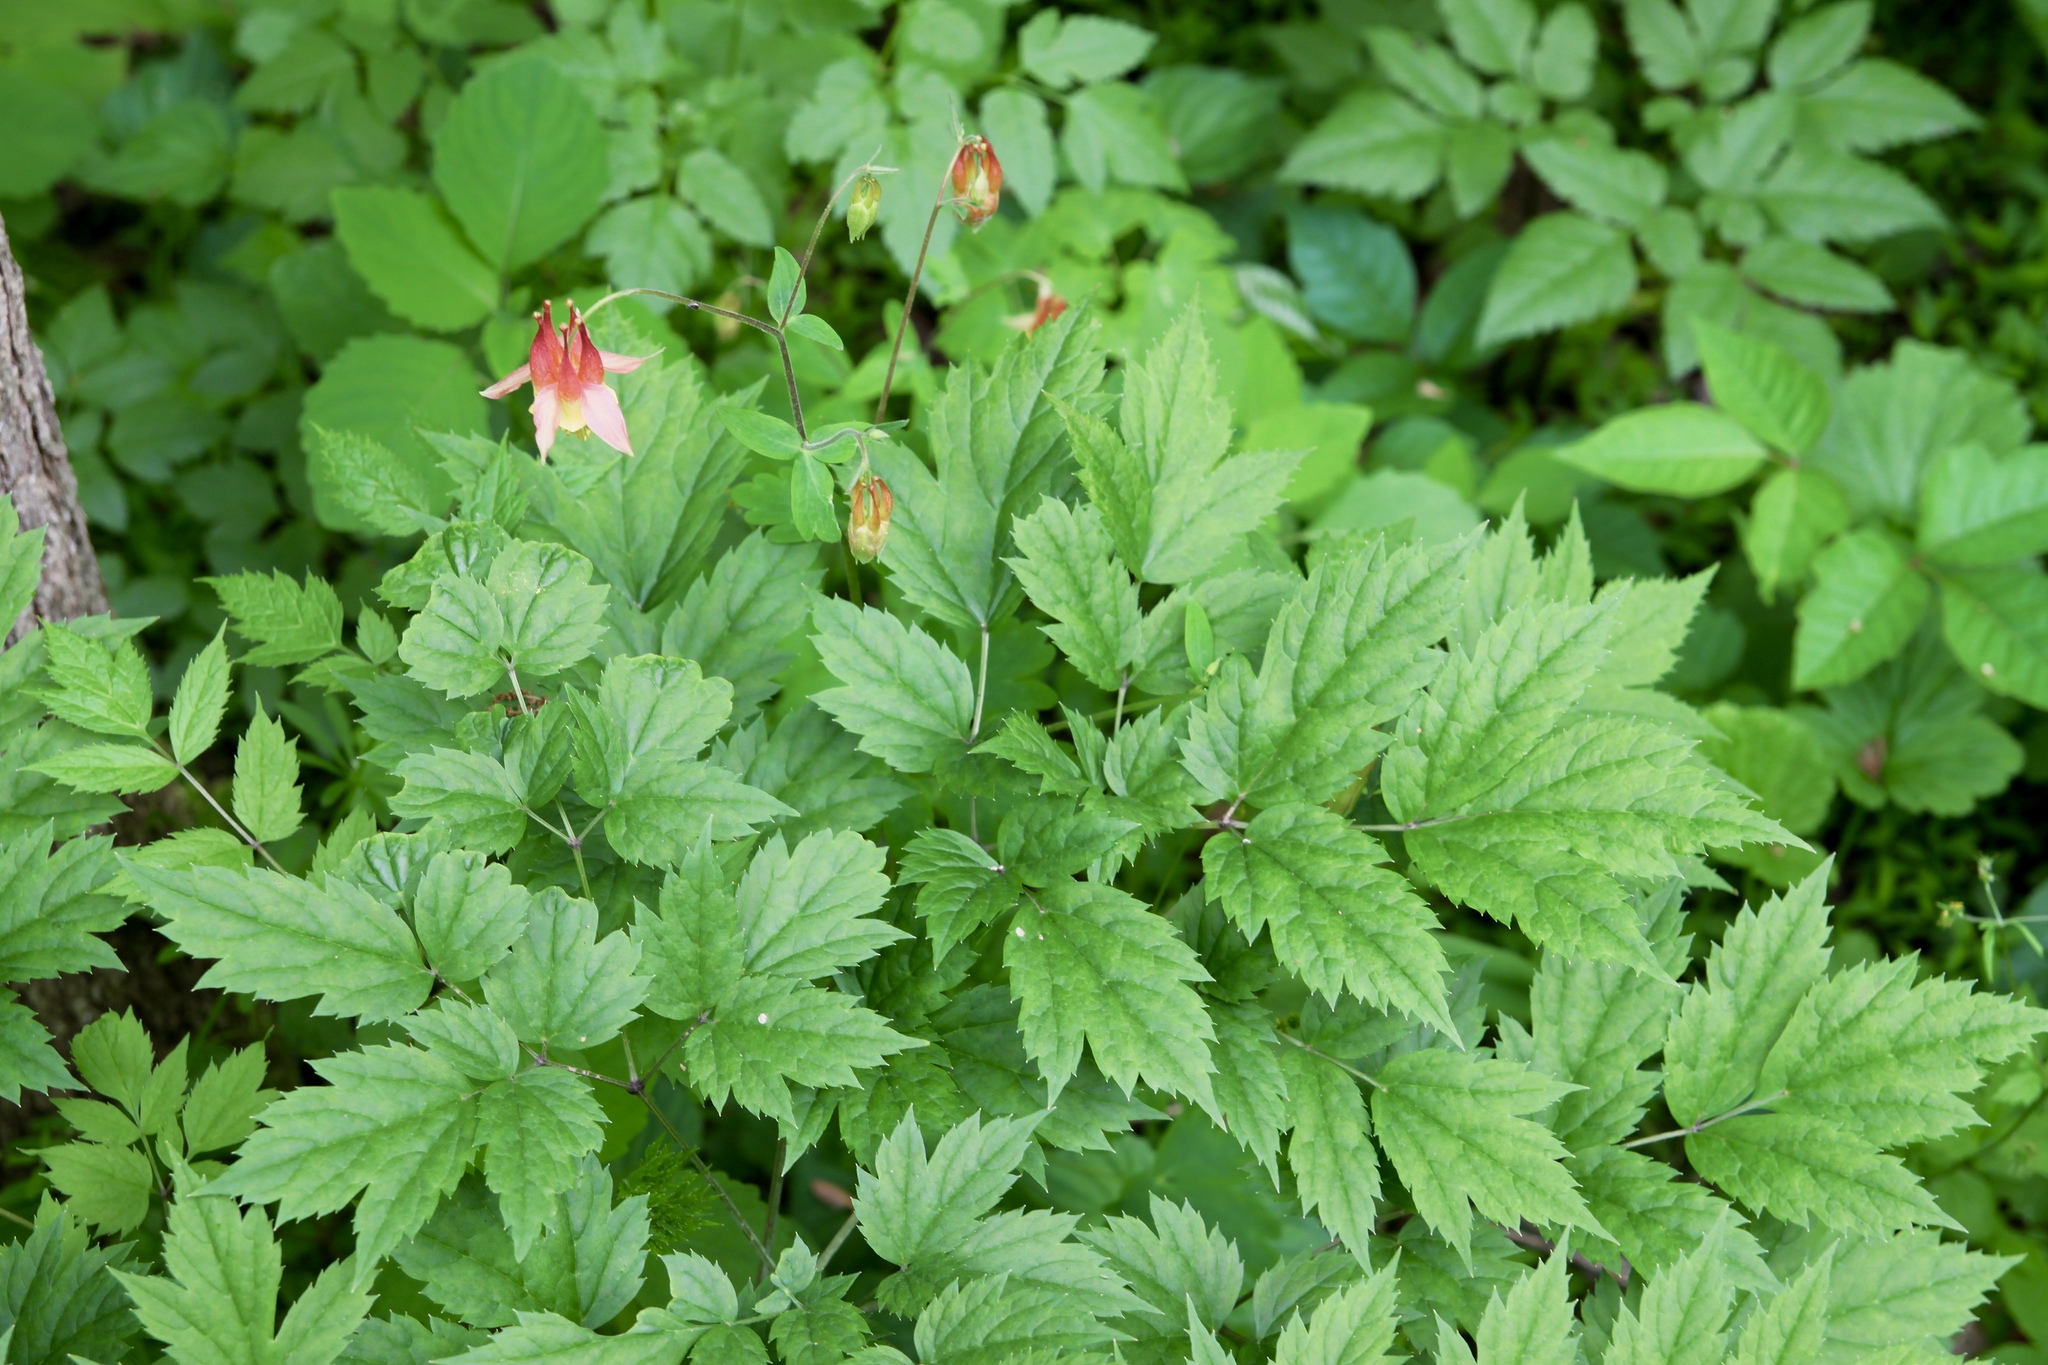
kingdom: Plantae
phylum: Tracheophyta
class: Magnoliopsida
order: Ranunculales
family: Ranunculaceae
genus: Aquilegia
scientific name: Aquilegia canadensis
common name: American columbine
